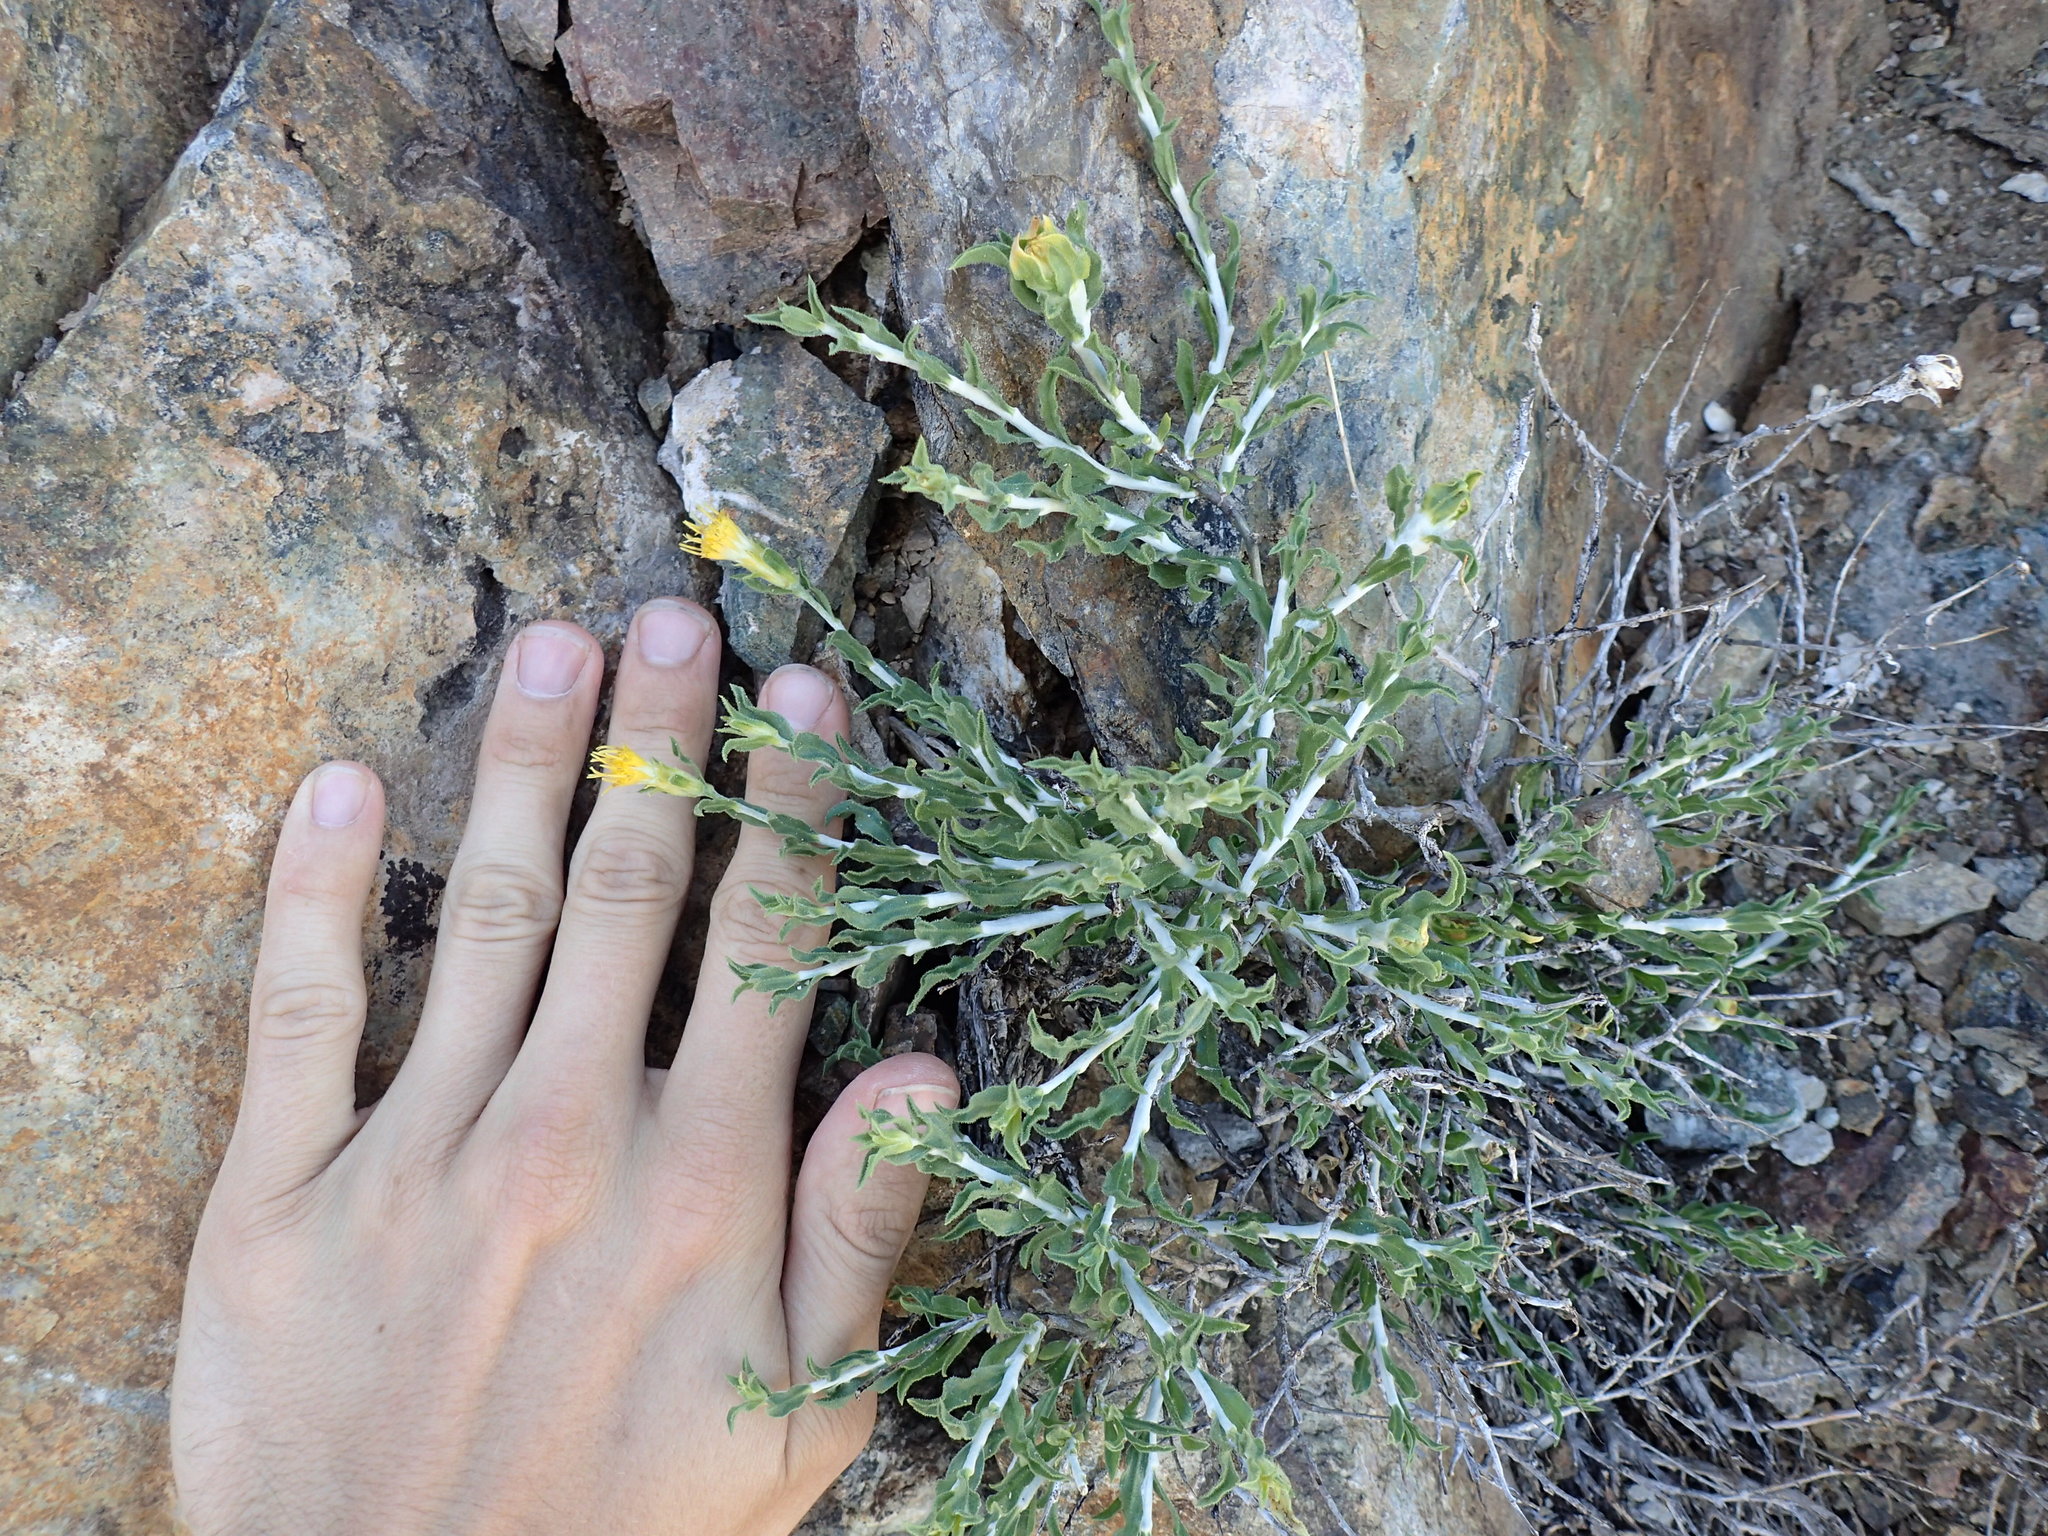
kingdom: Plantae
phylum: Tracheophyta
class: Magnoliopsida
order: Asterales
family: Asteraceae
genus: Ericameria
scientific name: Ericameria discoidea
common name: Sharp-scale goldenweed
